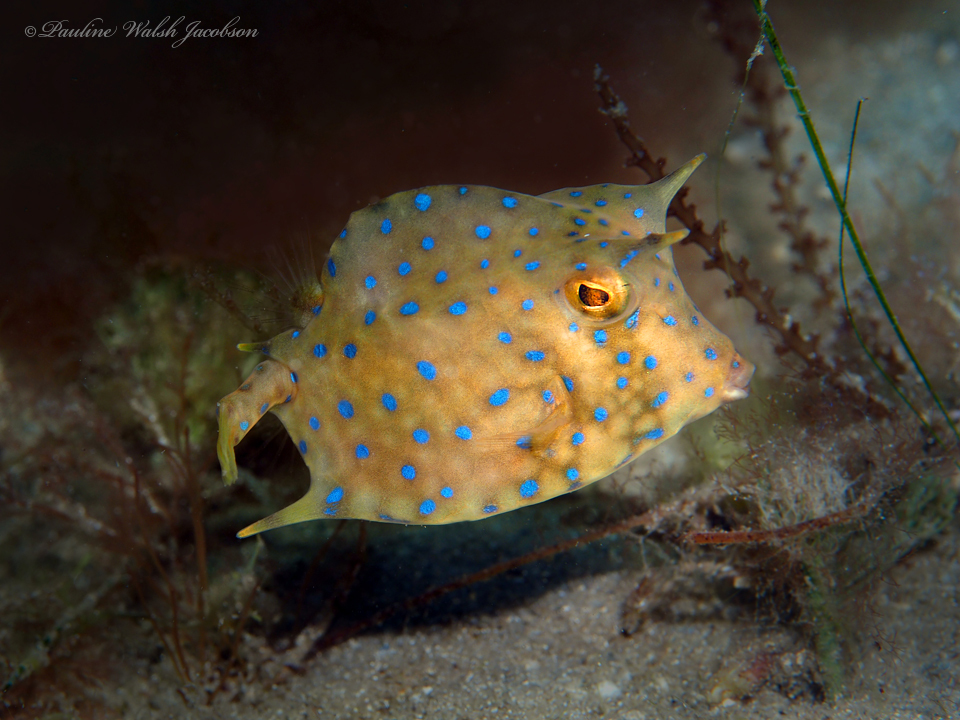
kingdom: Animalia
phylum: Chordata
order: Tetraodontiformes
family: Ostraciidae
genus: Acanthostracion
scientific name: Acanthostracion quadricornis
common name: Scrawled cowfish
